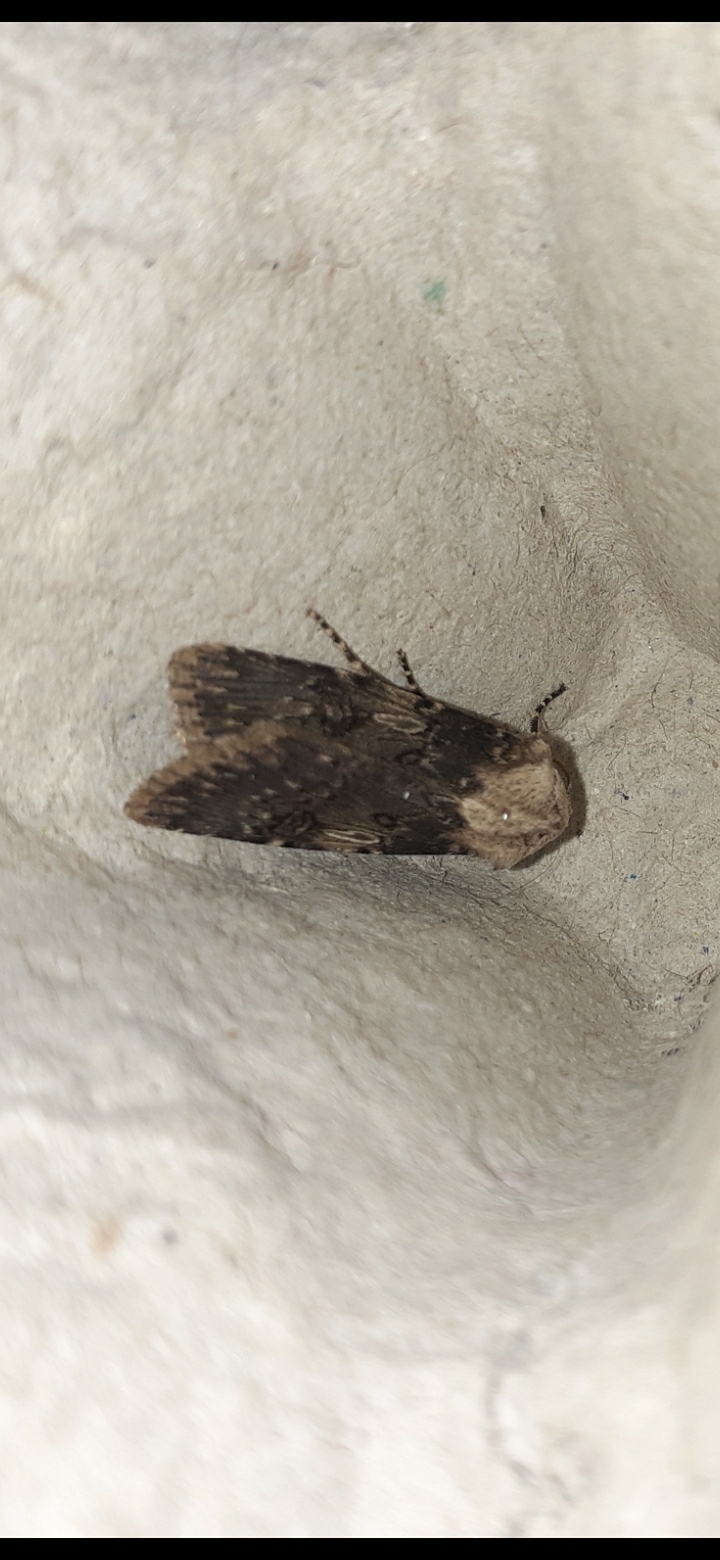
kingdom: Animalia
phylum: Arthropoda
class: Insecta
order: Lepidoptera
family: Noctuidae
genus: Agrotis
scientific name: Agrotis puta
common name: Shuttle-shaped dart
